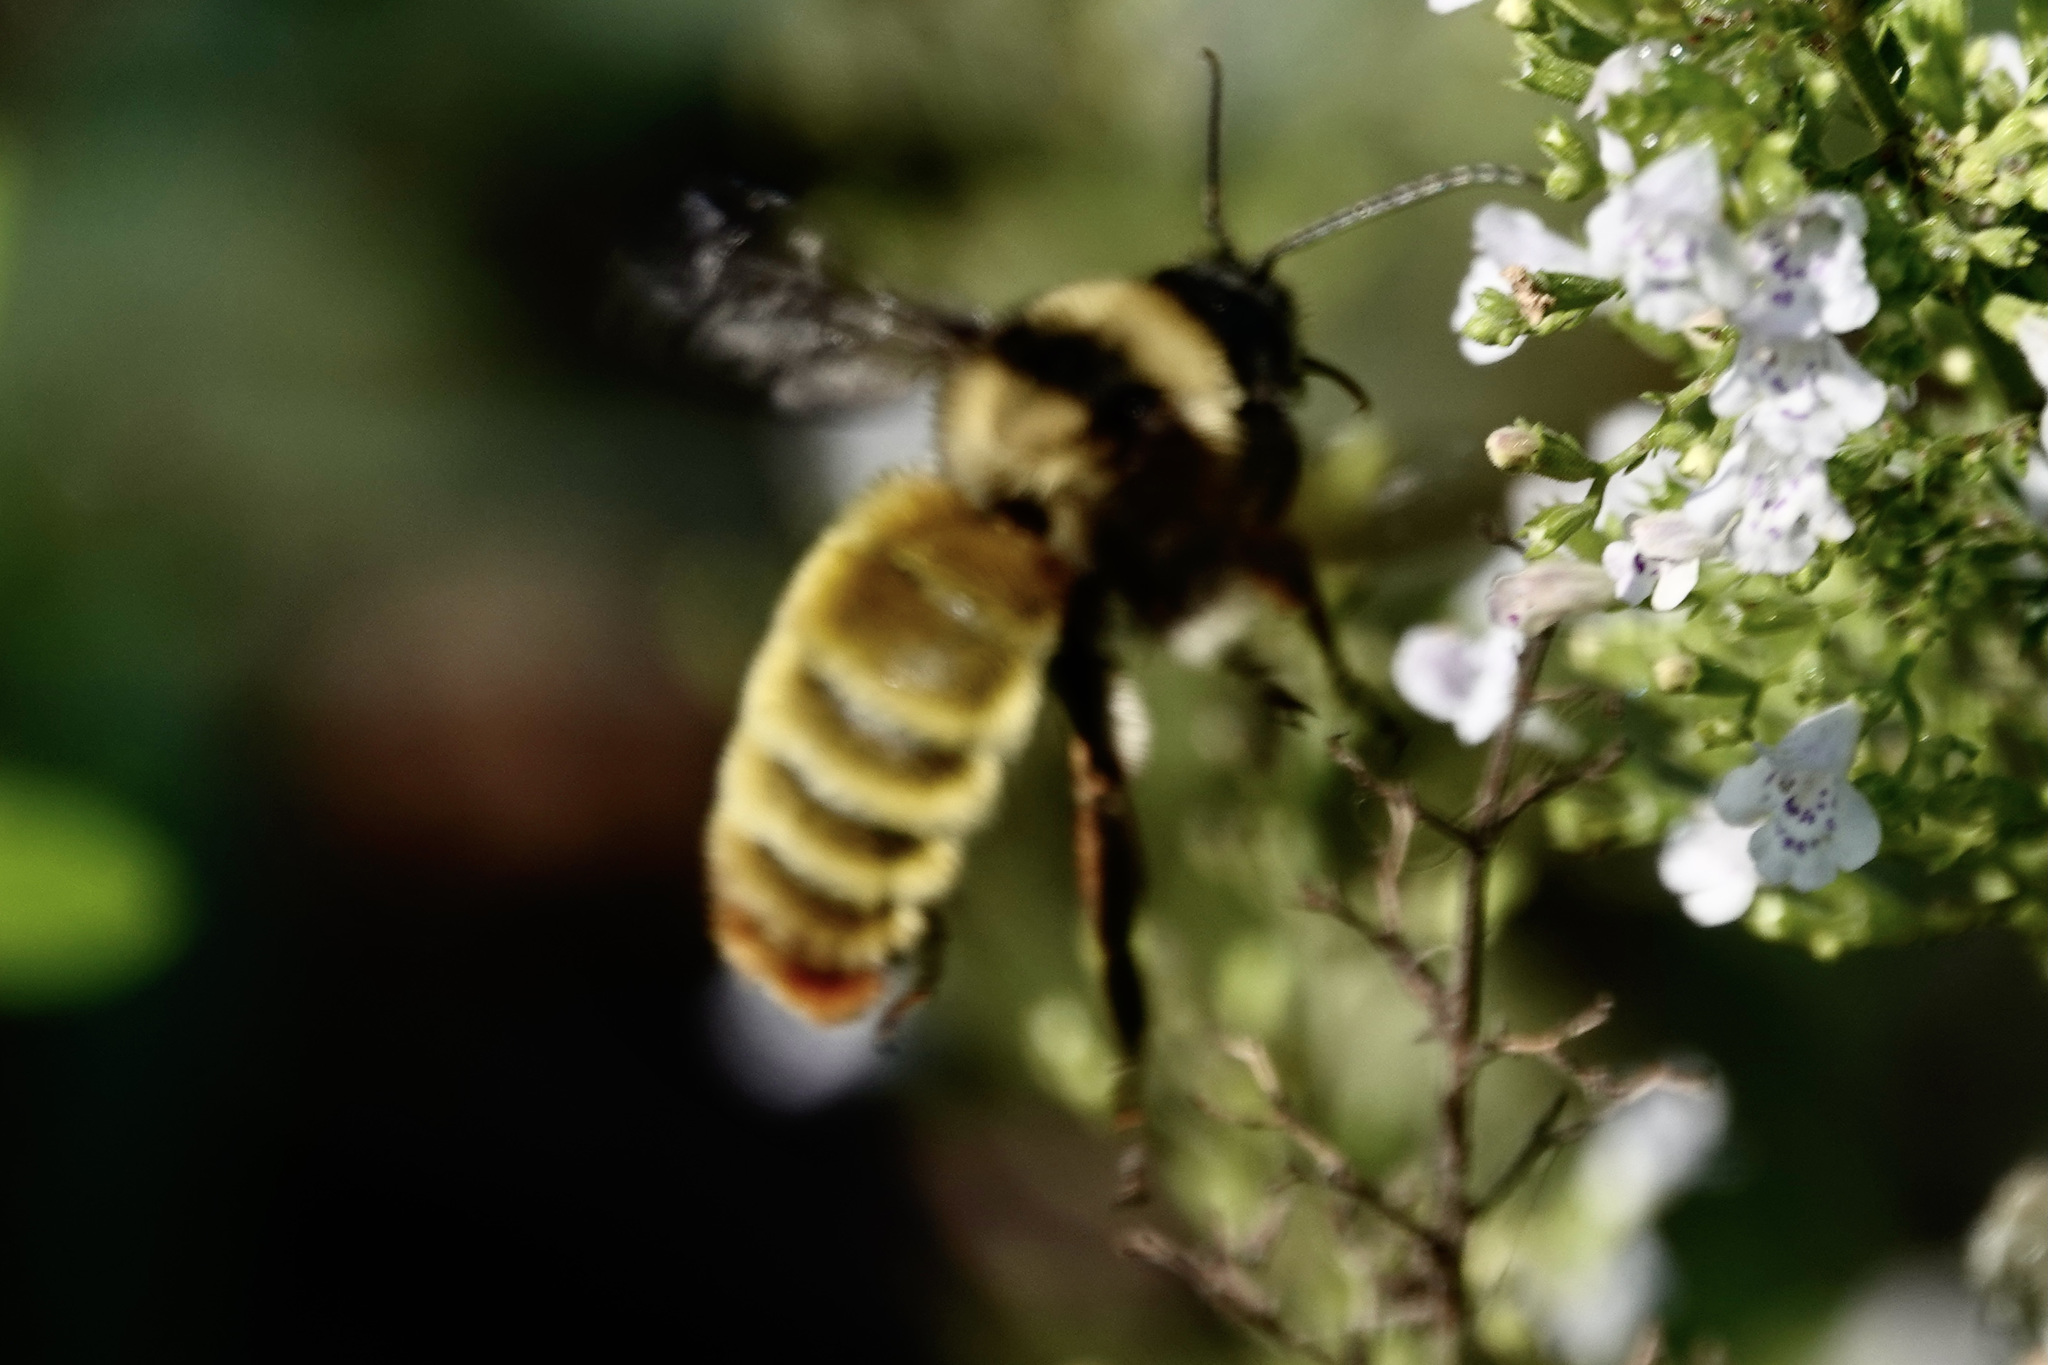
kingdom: Animalia
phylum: Arthropoda
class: Insecta
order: Hymenoptera
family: Apidae
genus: Bombus
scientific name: Bombus pensylvanicus
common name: Bumble bee
